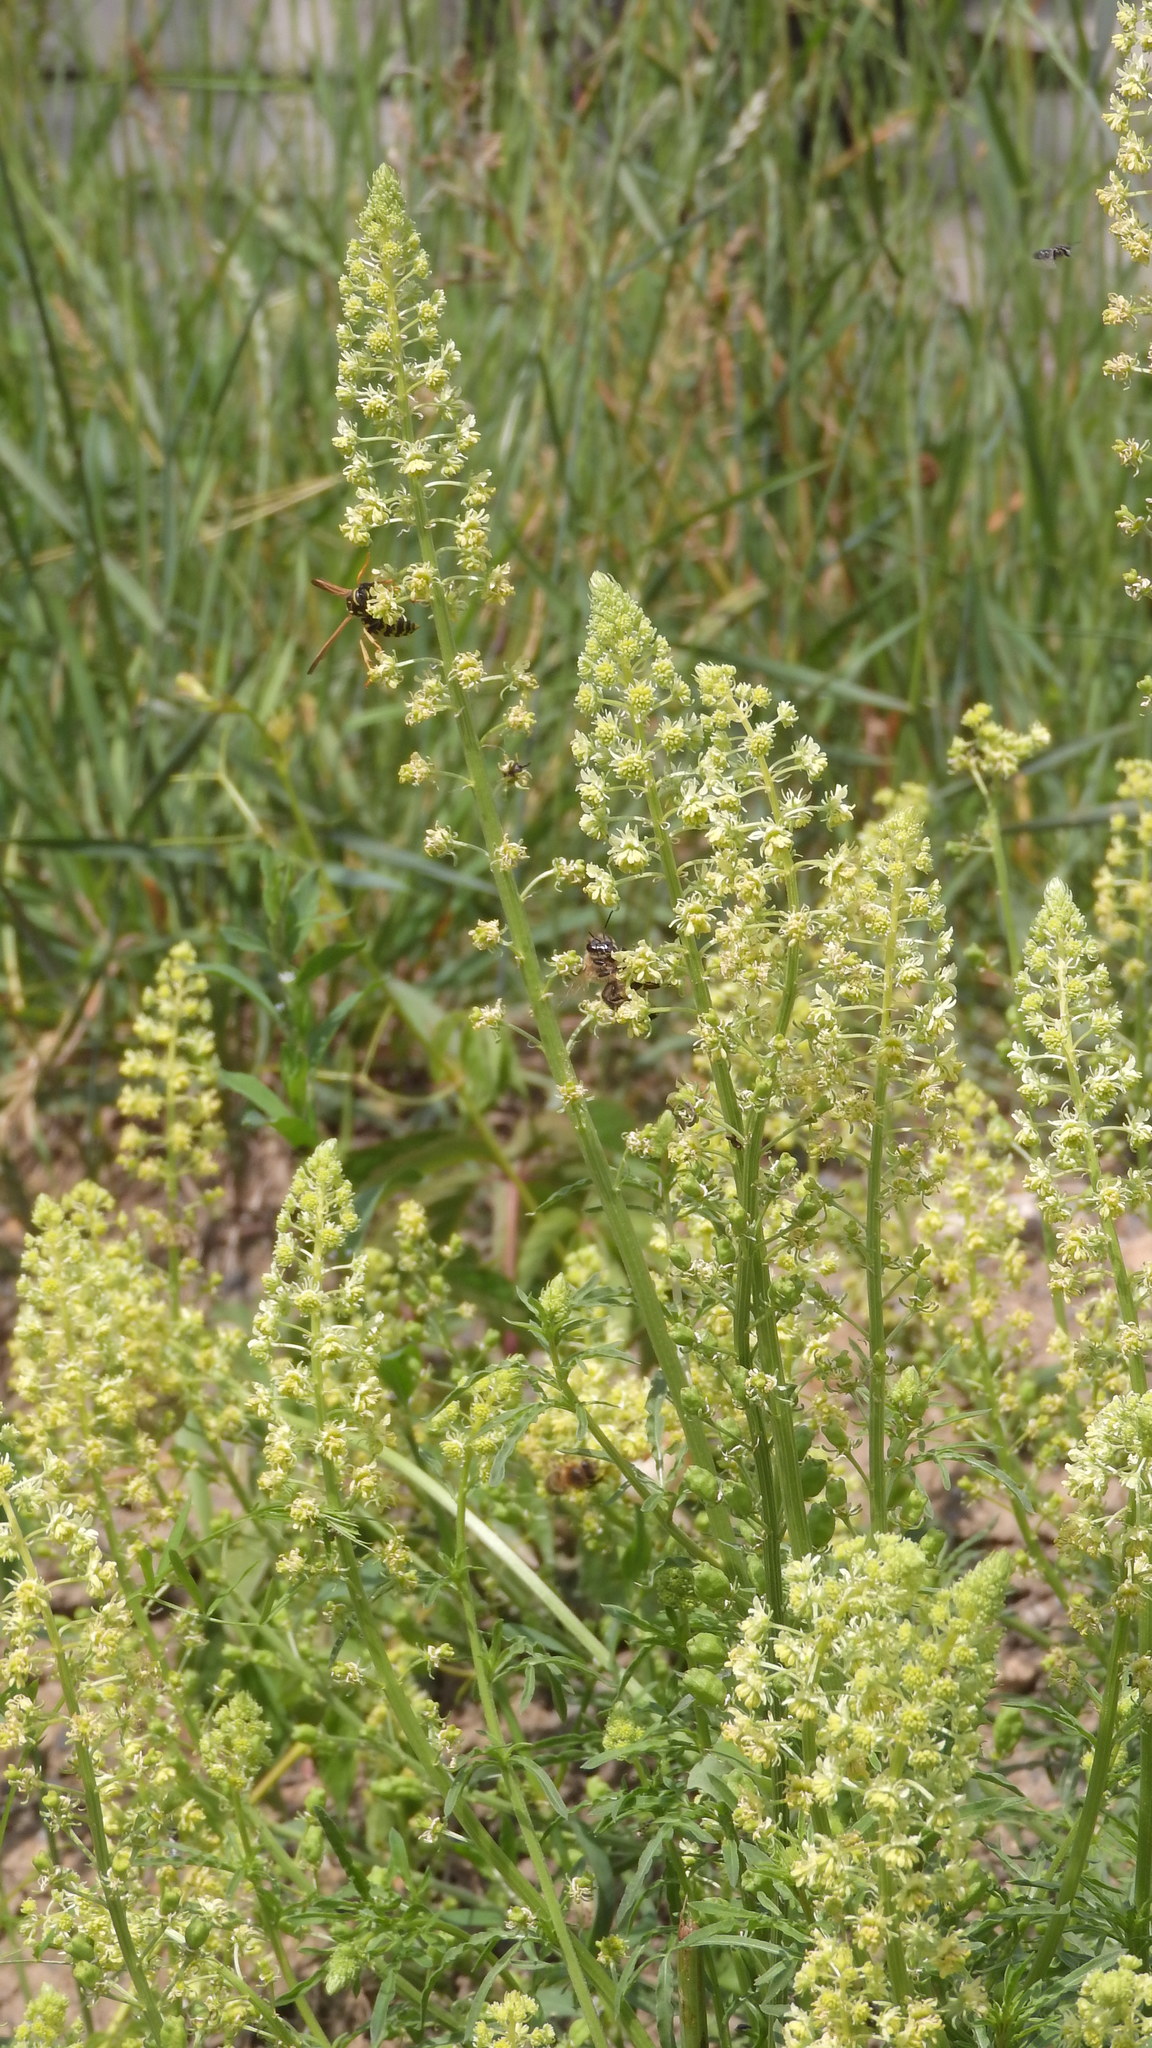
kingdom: Plantae
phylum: Tracheophyta
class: Magnoliopsida
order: Brassicales
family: Resedaceae
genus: Reseda
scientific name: Reseda lutea
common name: Wild mignonette
